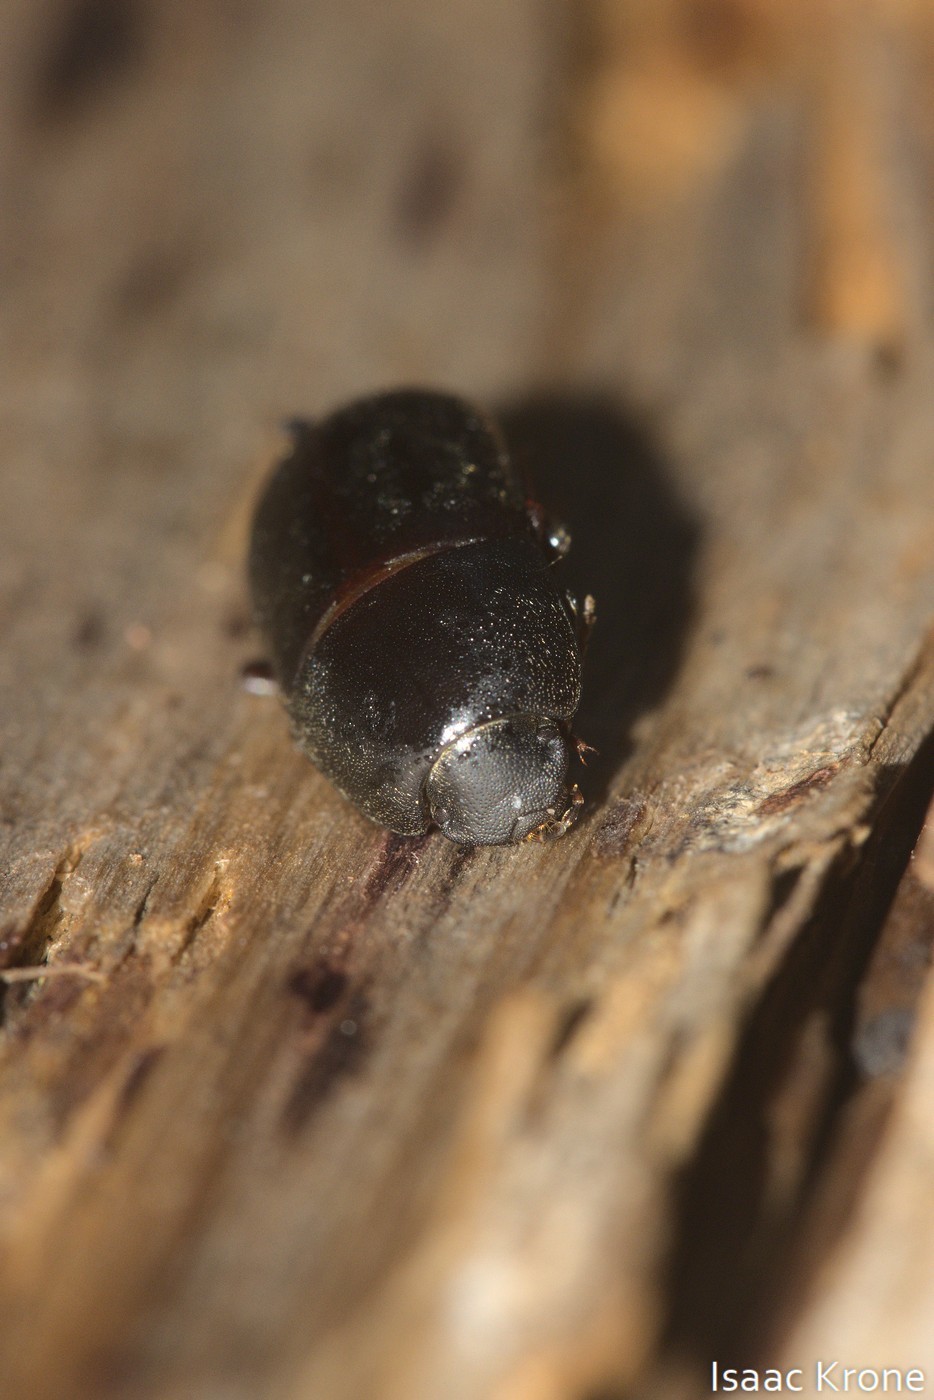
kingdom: Animalia
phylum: Arthropoda
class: Insecta
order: Coleoptera
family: Tenebrionidae
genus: Coniontis
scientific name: Coniontis
